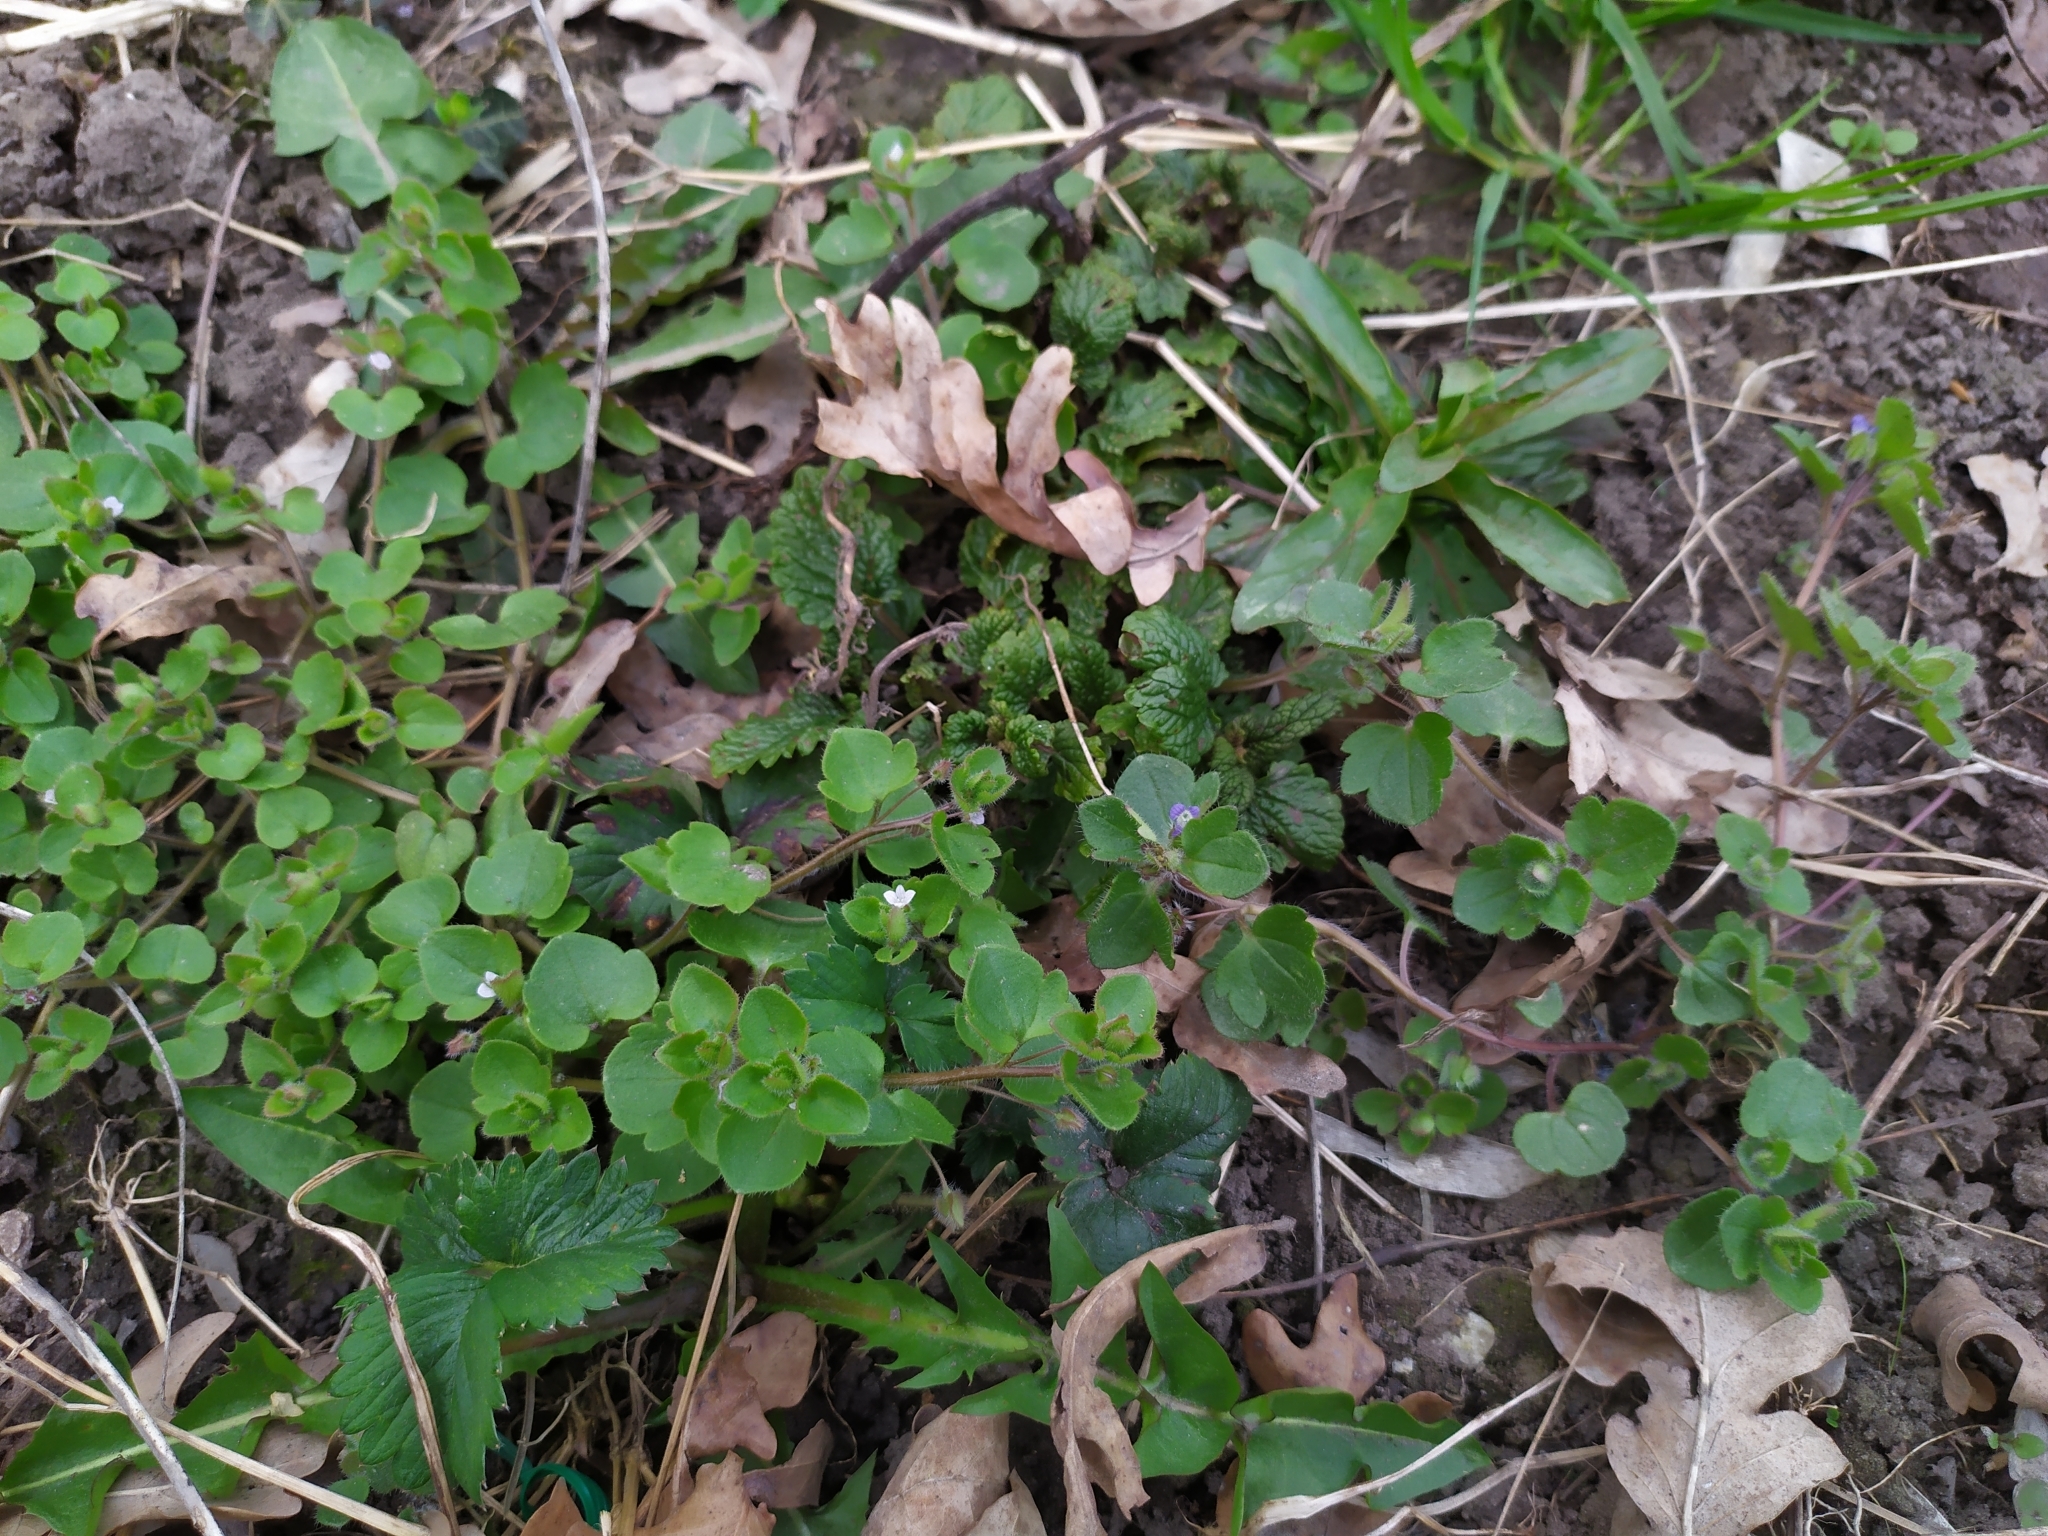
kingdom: Plantae
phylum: Tracheophyta
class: Magnoliopsida
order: Lamiales
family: Plantaginaceae
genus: Veronica
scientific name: Veronica hederifolia
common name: Ivy-leaved speedwell
